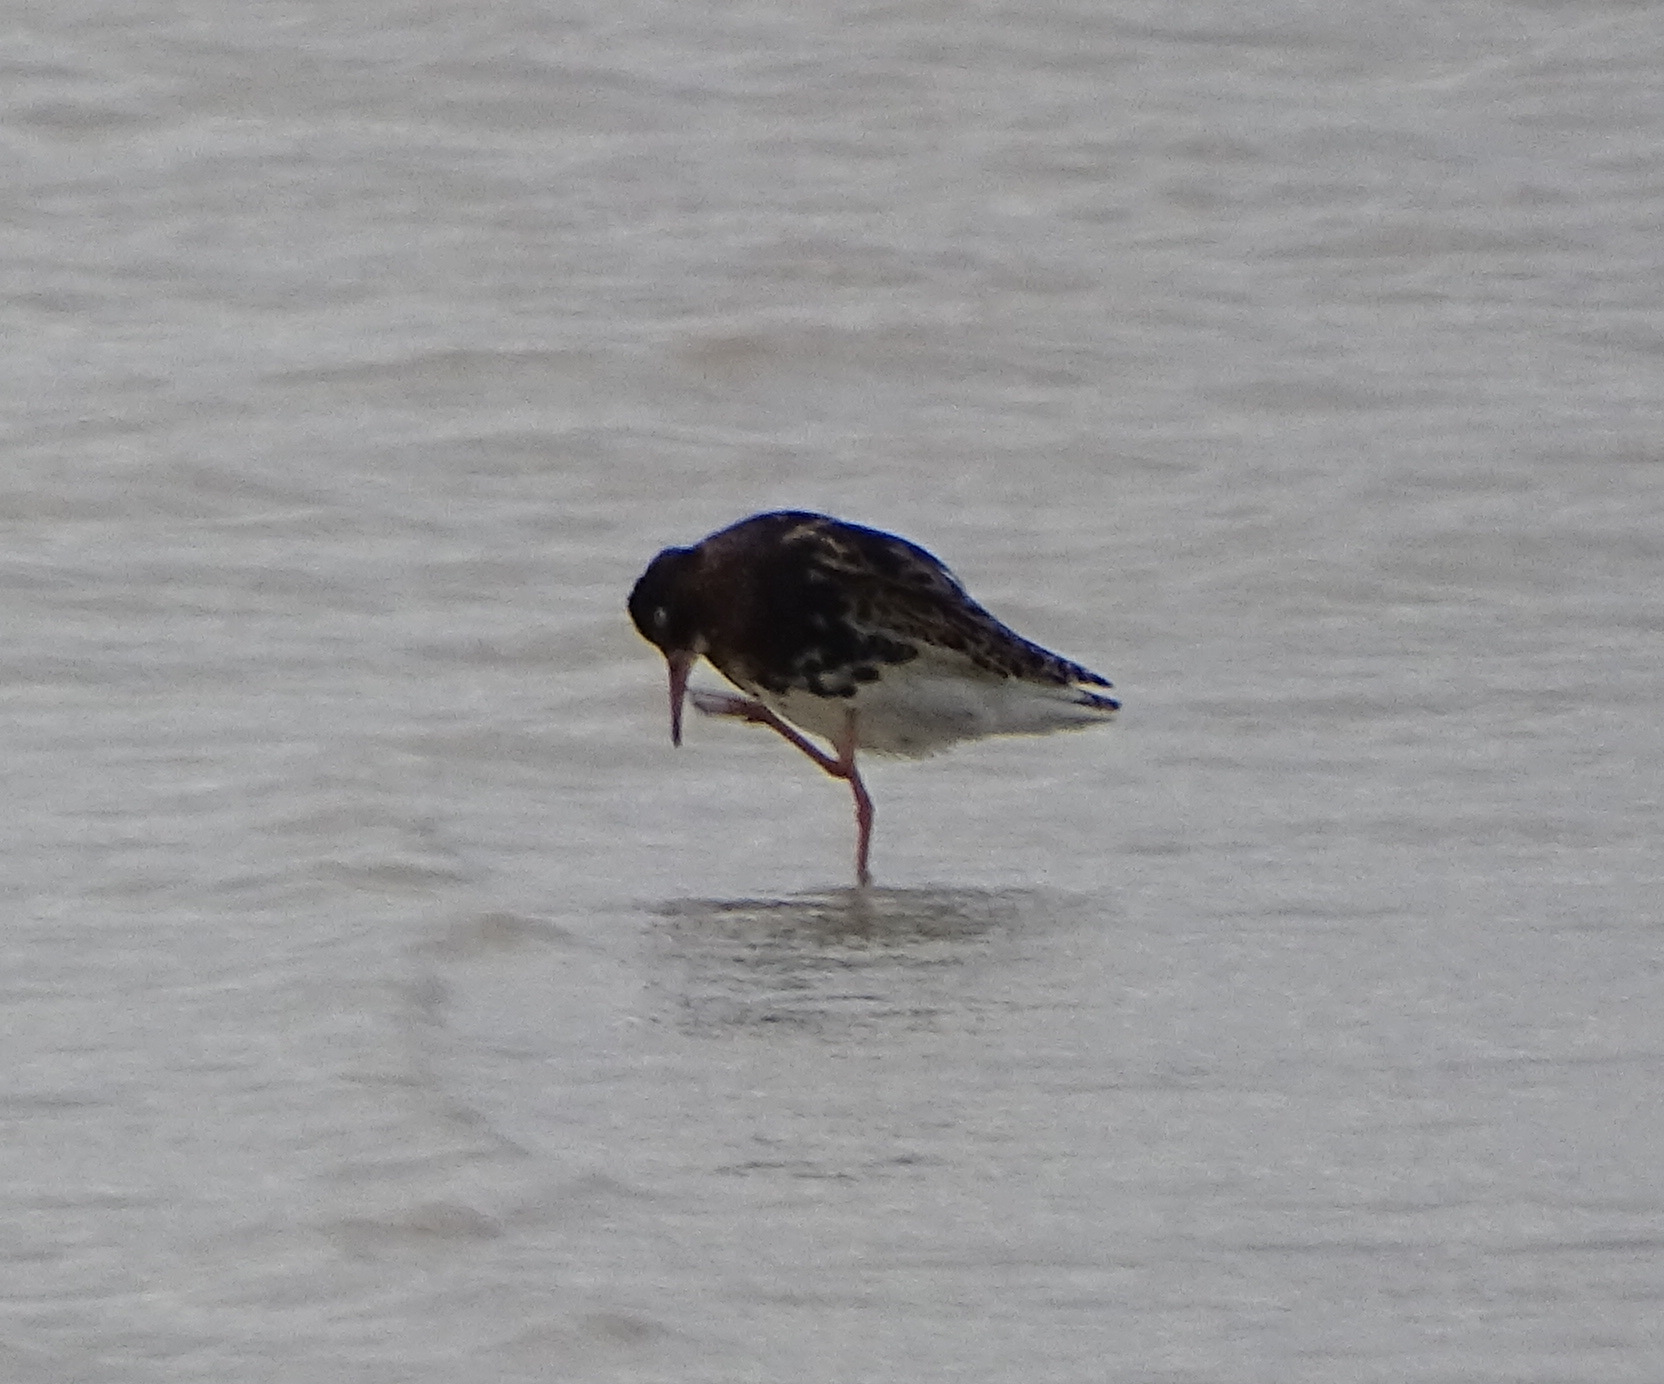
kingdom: Animalia
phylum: Chordata
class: Aves
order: Charadriiformes
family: Scolopacidae
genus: Calidris
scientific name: Calidris pugnax
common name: Ruff
